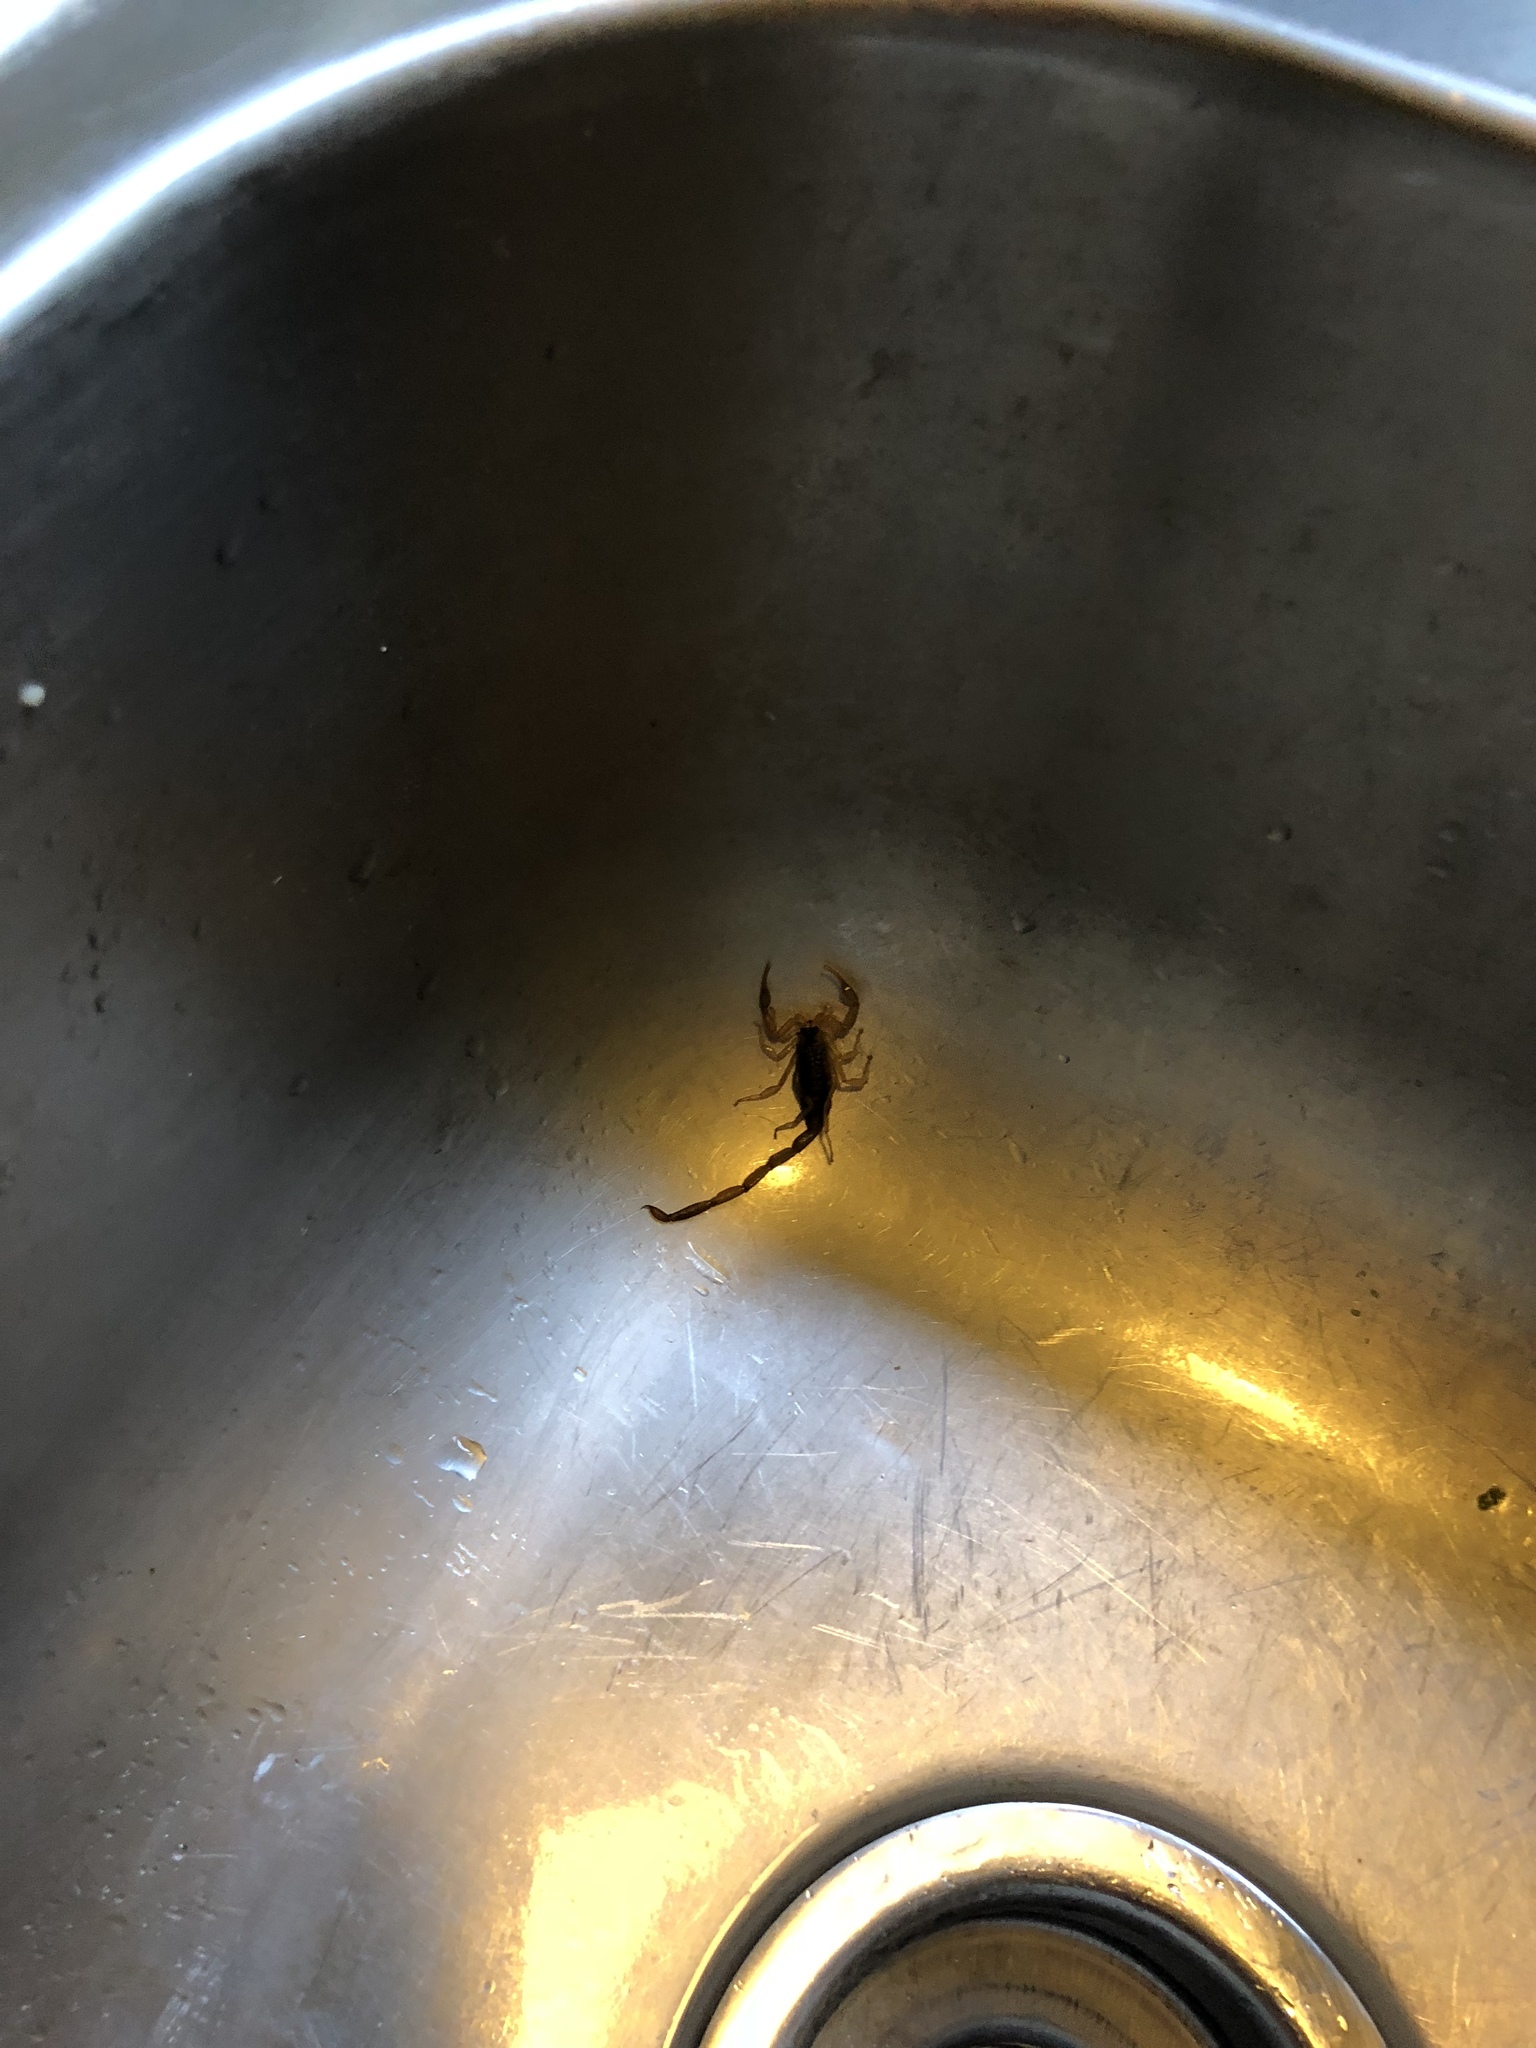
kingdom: Animalia
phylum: Arthropoda
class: Arachnida
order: Scorpiones
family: Buthidae
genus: Centruroides
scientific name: Centruroides vittatus
